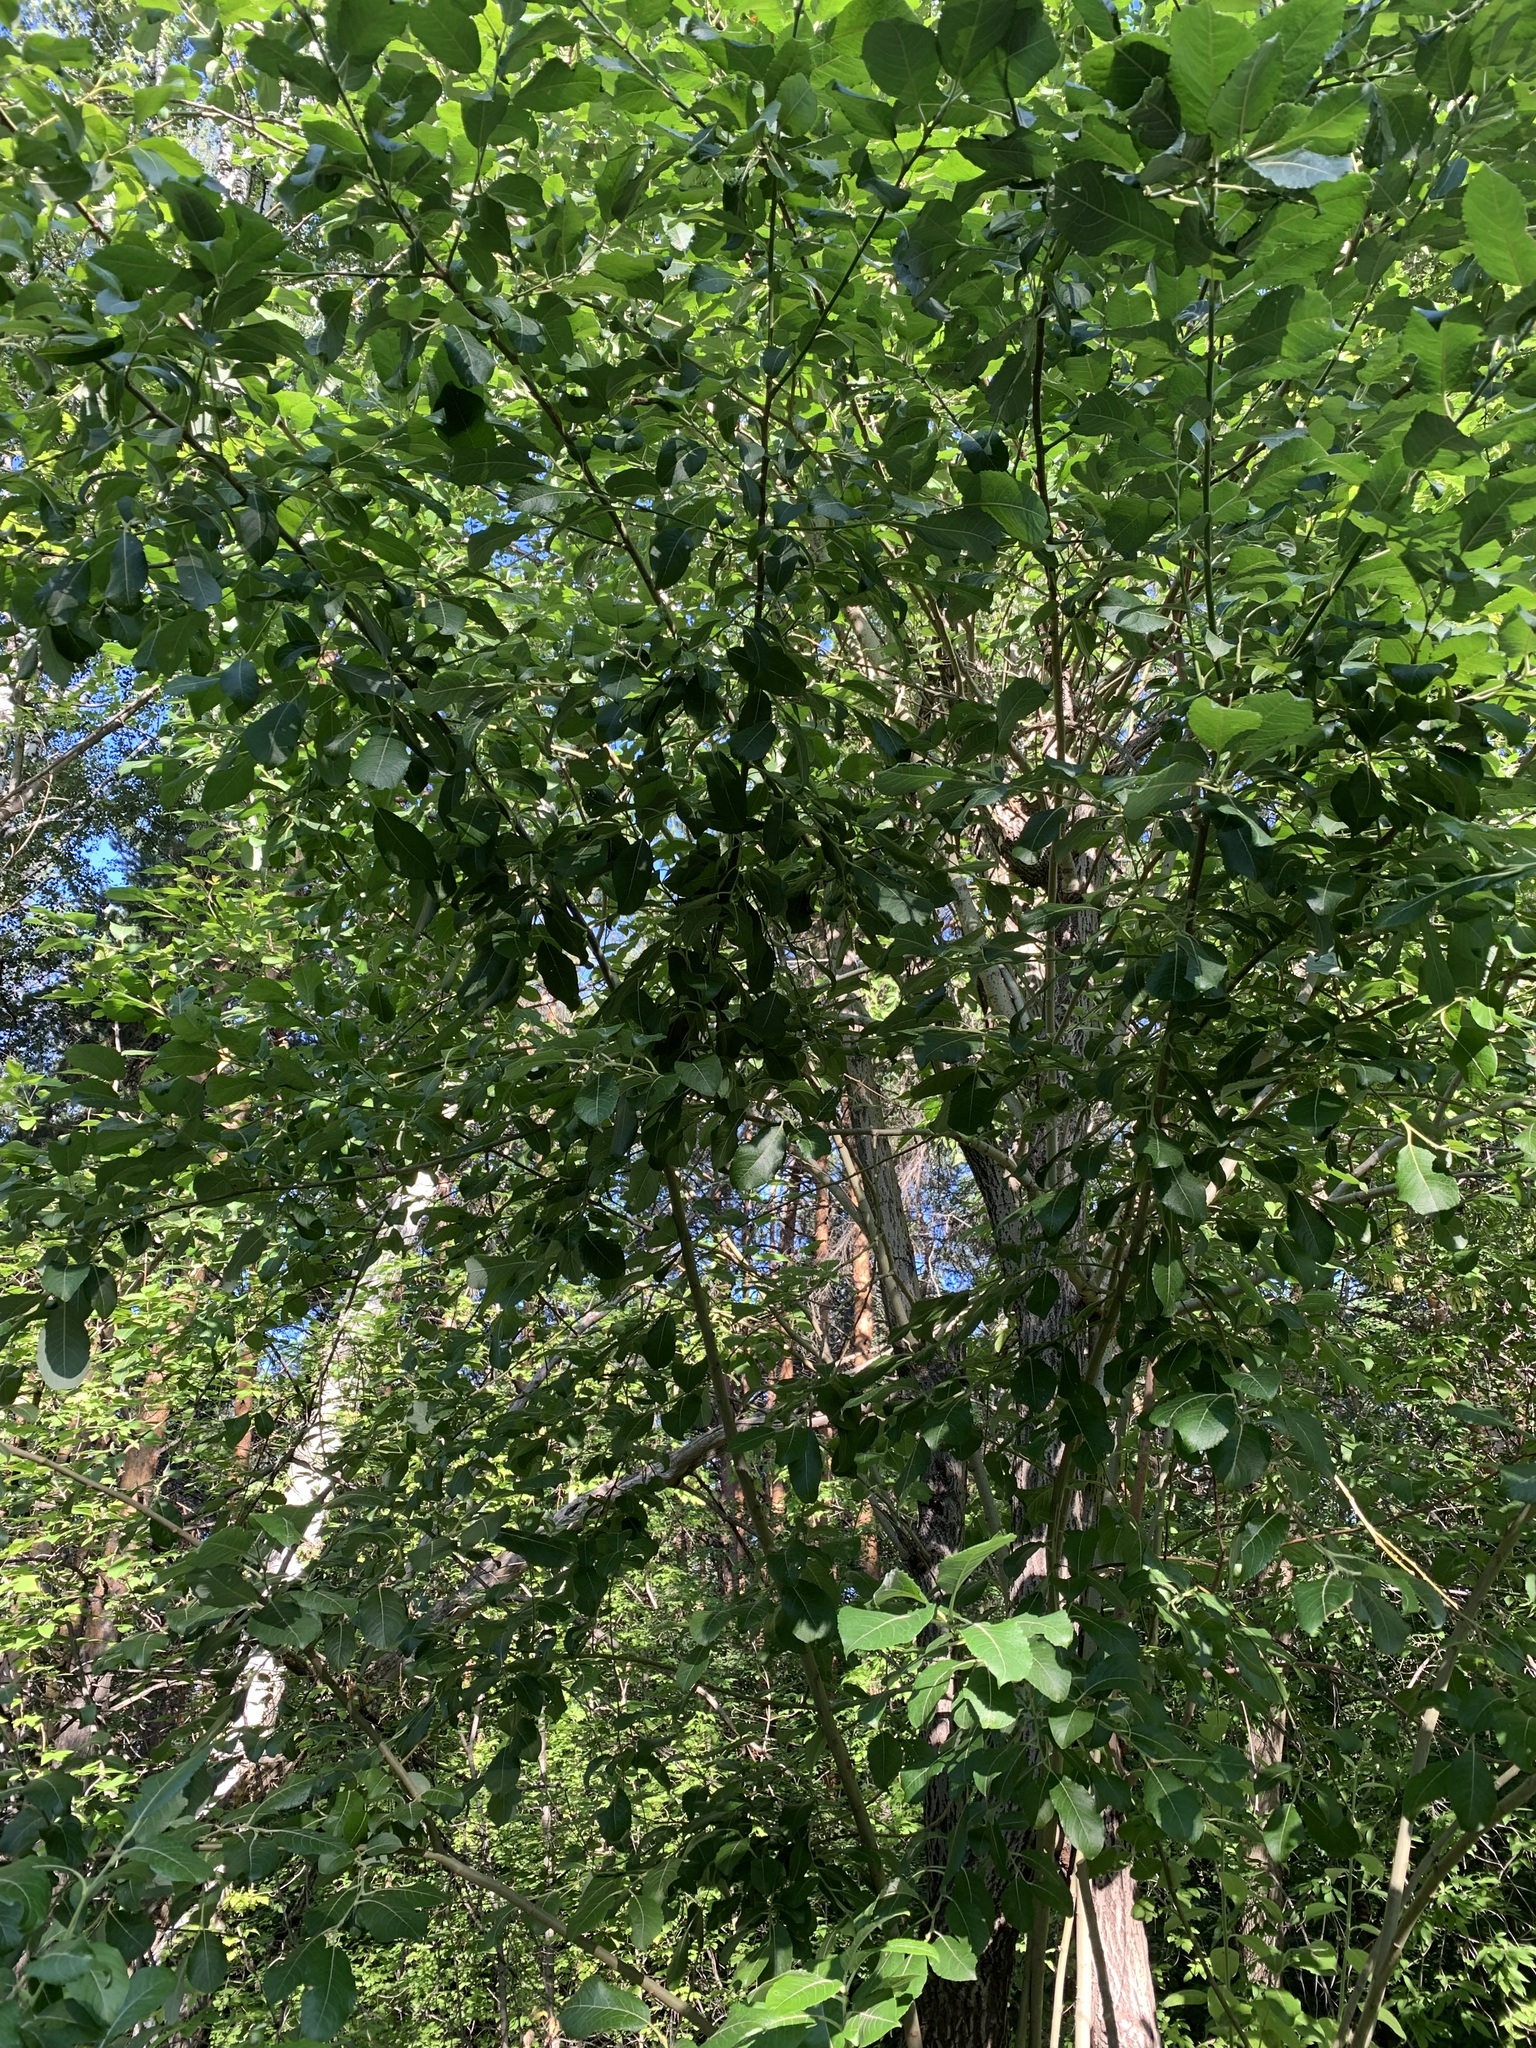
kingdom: Plantae
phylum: Tracheophyta
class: Magnoliopsida
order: Malpighiales
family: Salicaceae
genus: Salix
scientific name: Salix caprea
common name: Goat willow
